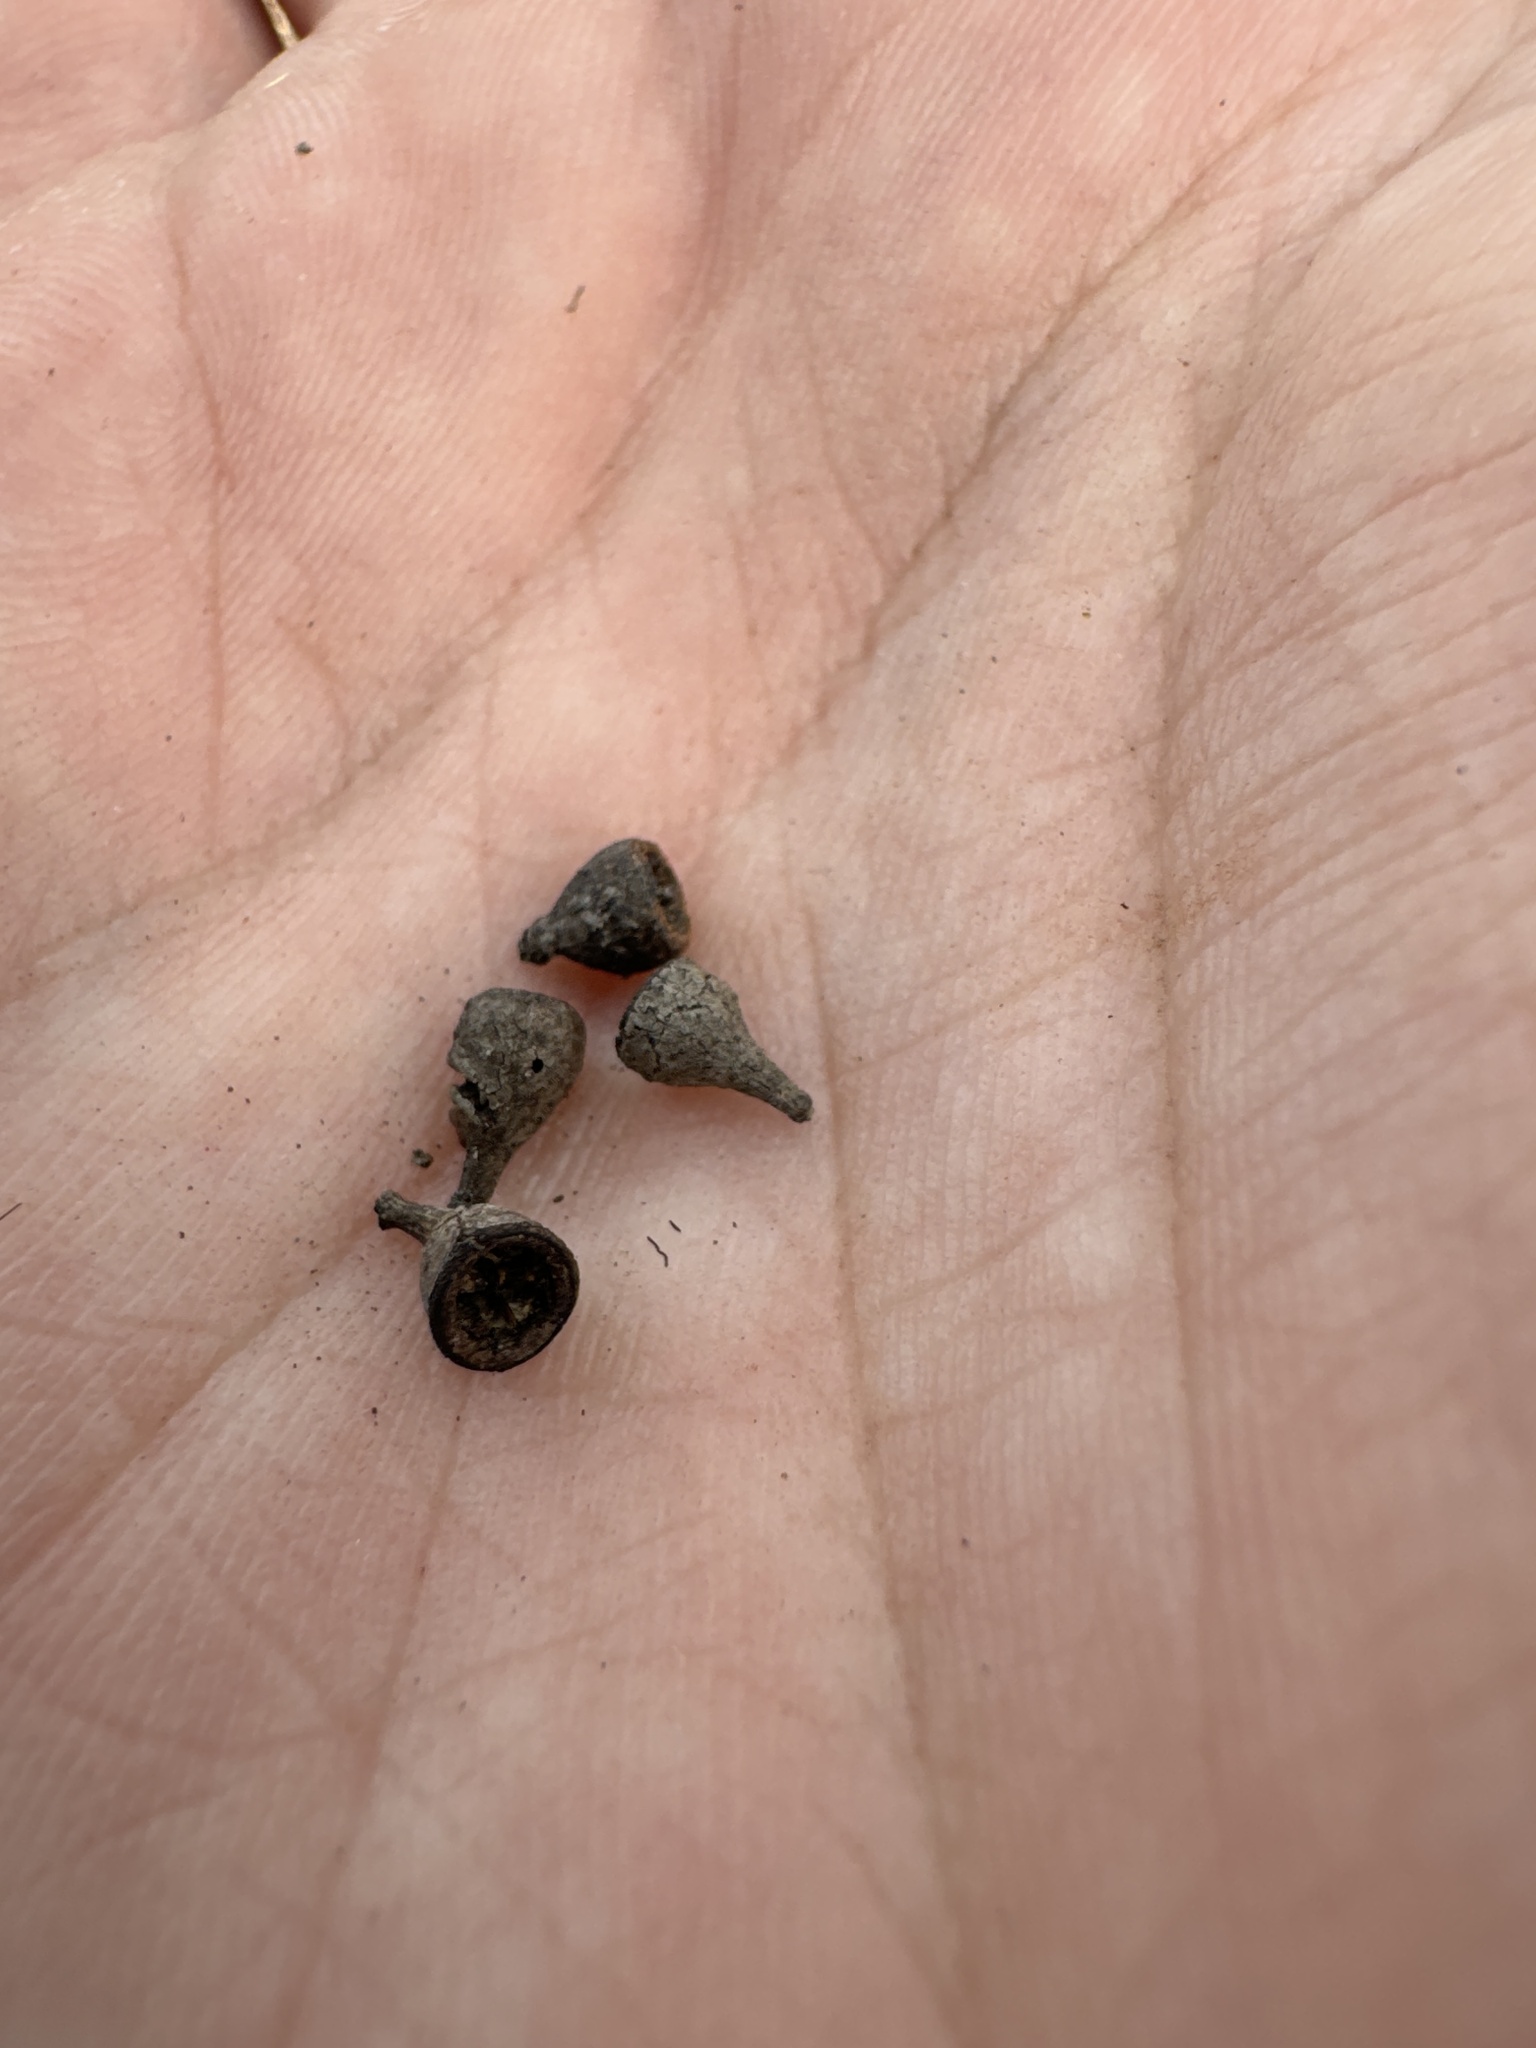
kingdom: Plantae
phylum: Tracheophyta
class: Magnoliopsida
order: Myrtales
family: Myrtaceae
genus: Eucalyptus
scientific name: Eucalyptus populnea
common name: Bimble box
